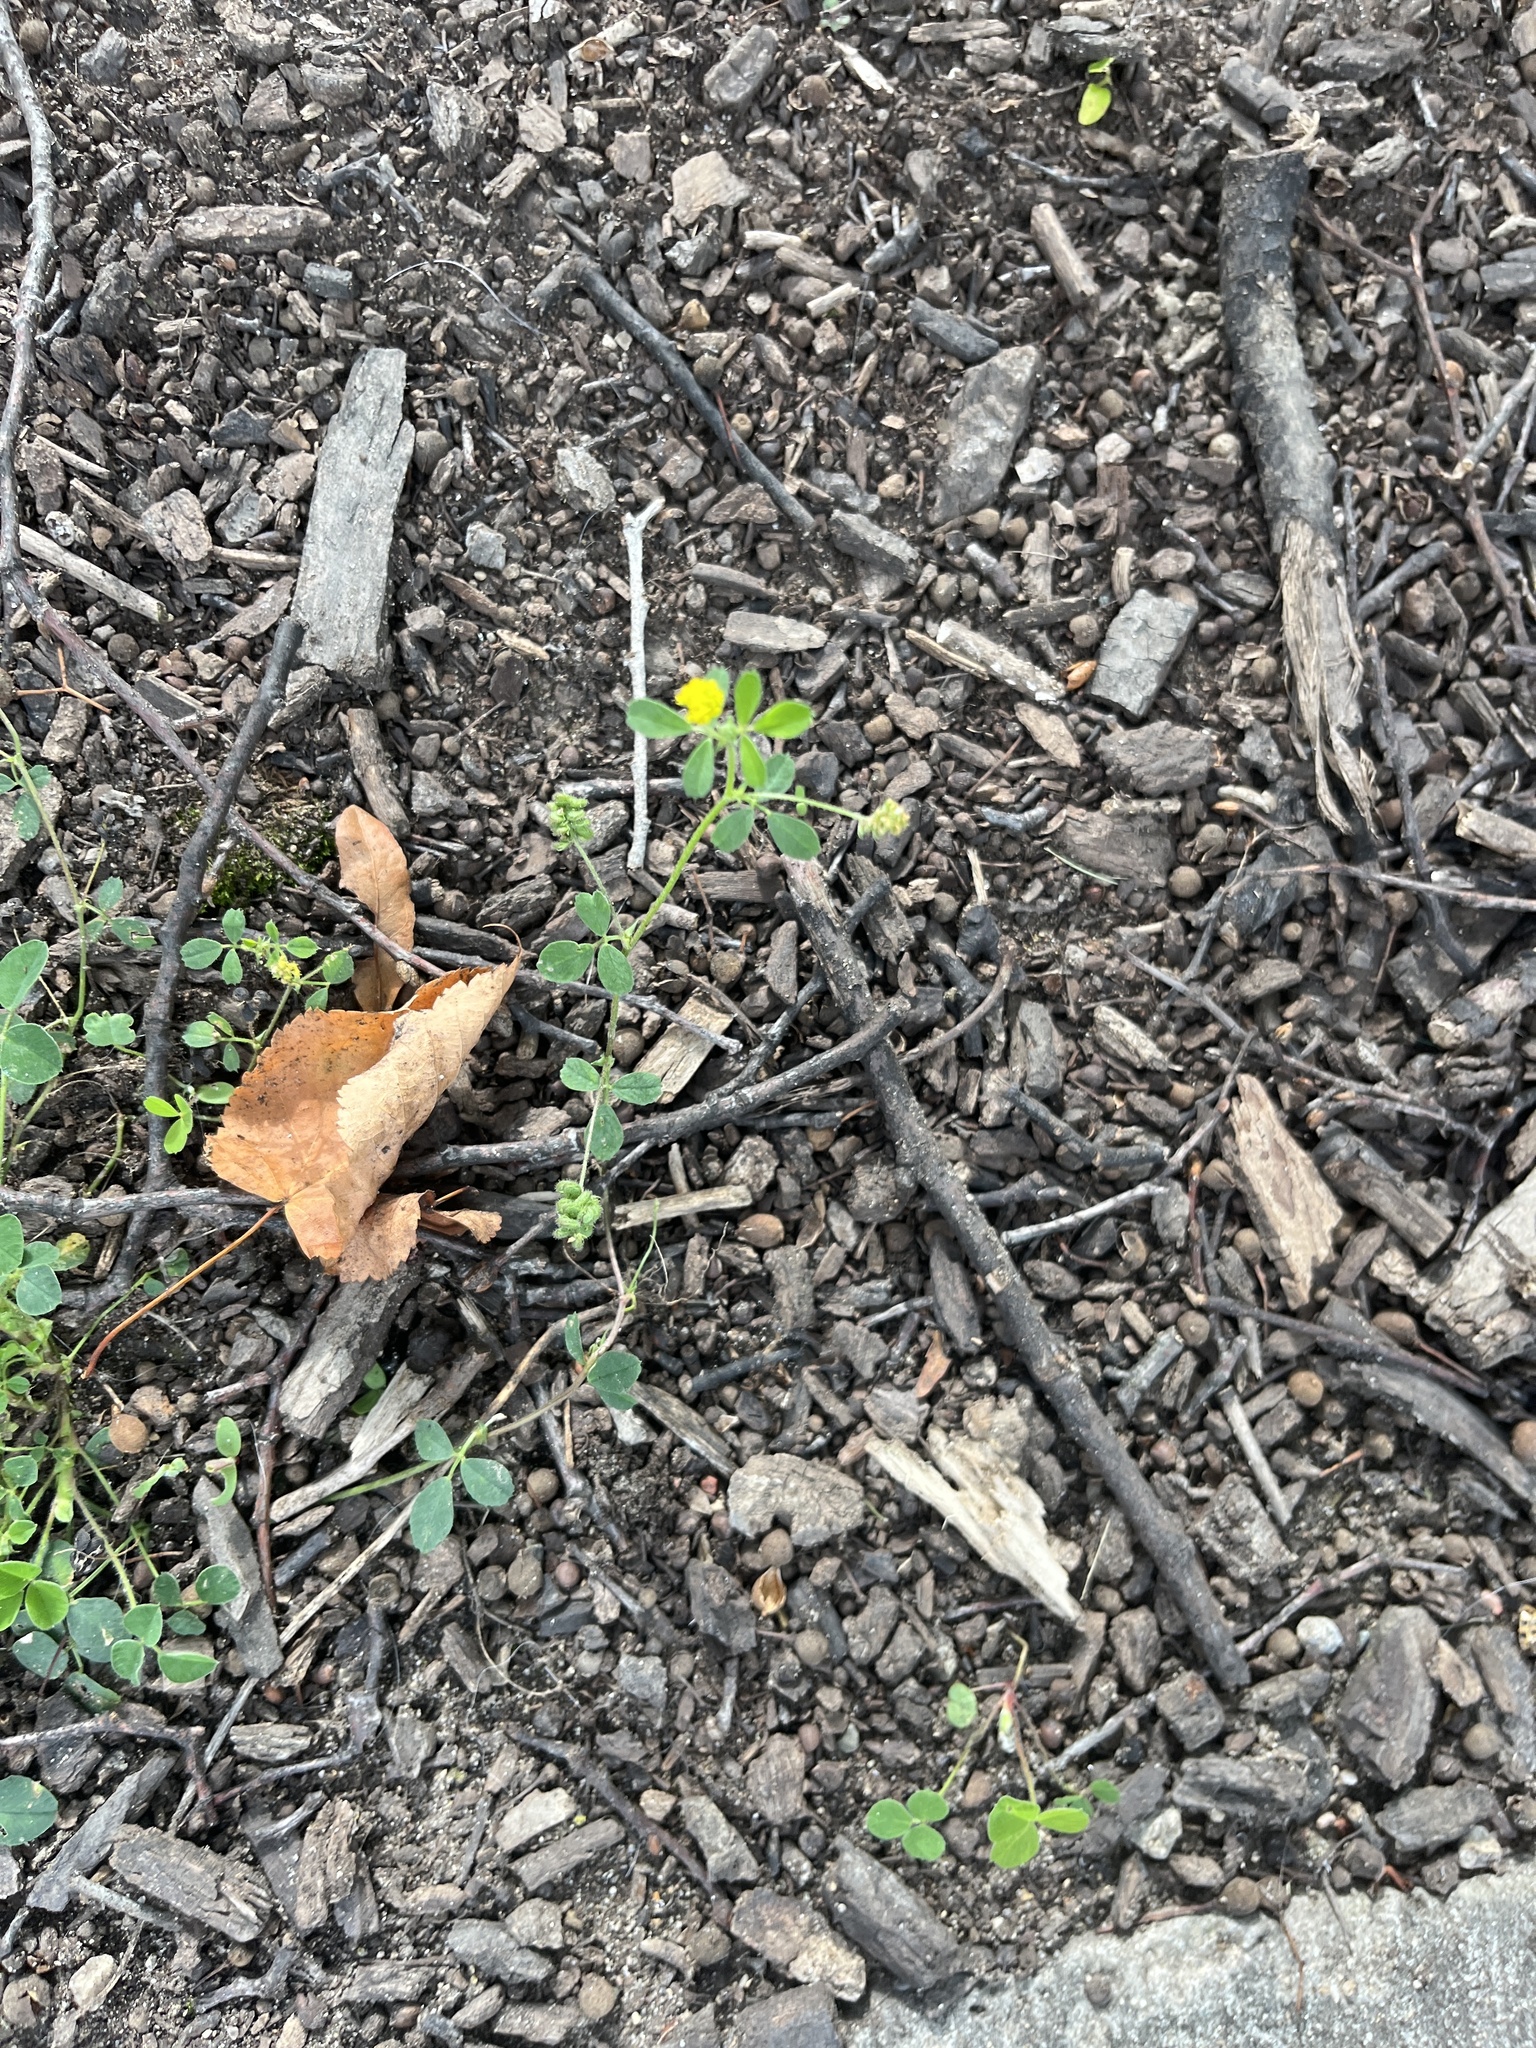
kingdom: Plantae
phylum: Tracheophyta
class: Magnoliopsida
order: Fabales
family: Fabaceae
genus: Medicago
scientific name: Medicago lupulina
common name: Black medick
